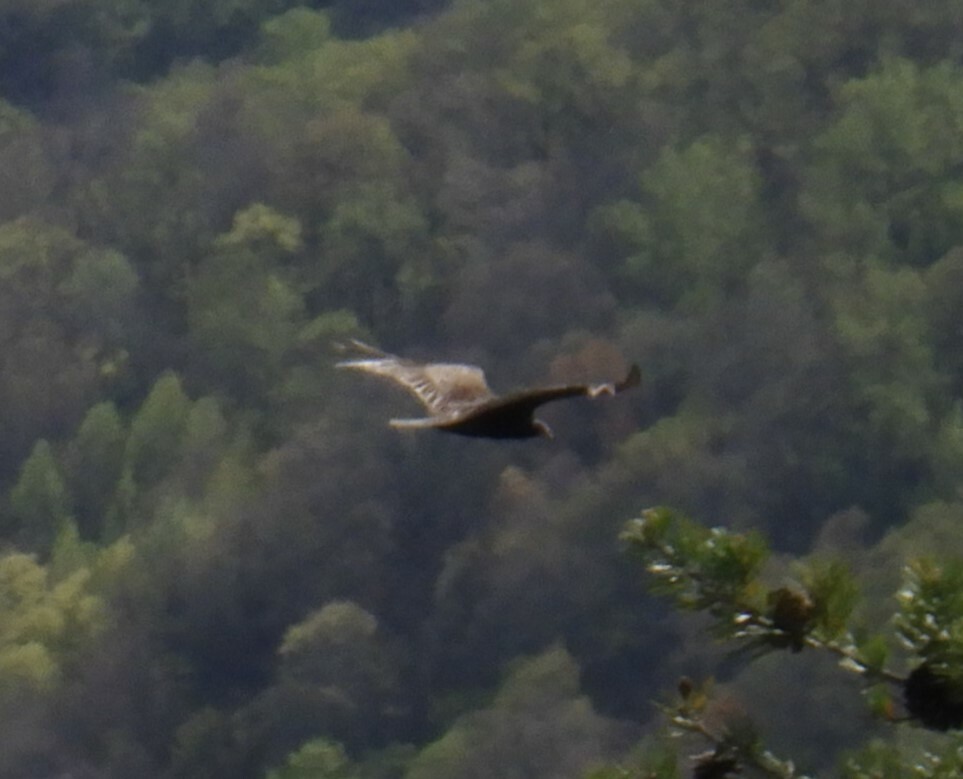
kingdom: Animalia
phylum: Chordata
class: Aves
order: Accipitriformes
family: Cathartidae
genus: Cathartes
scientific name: Cathartes aura
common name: Turkey vulture
